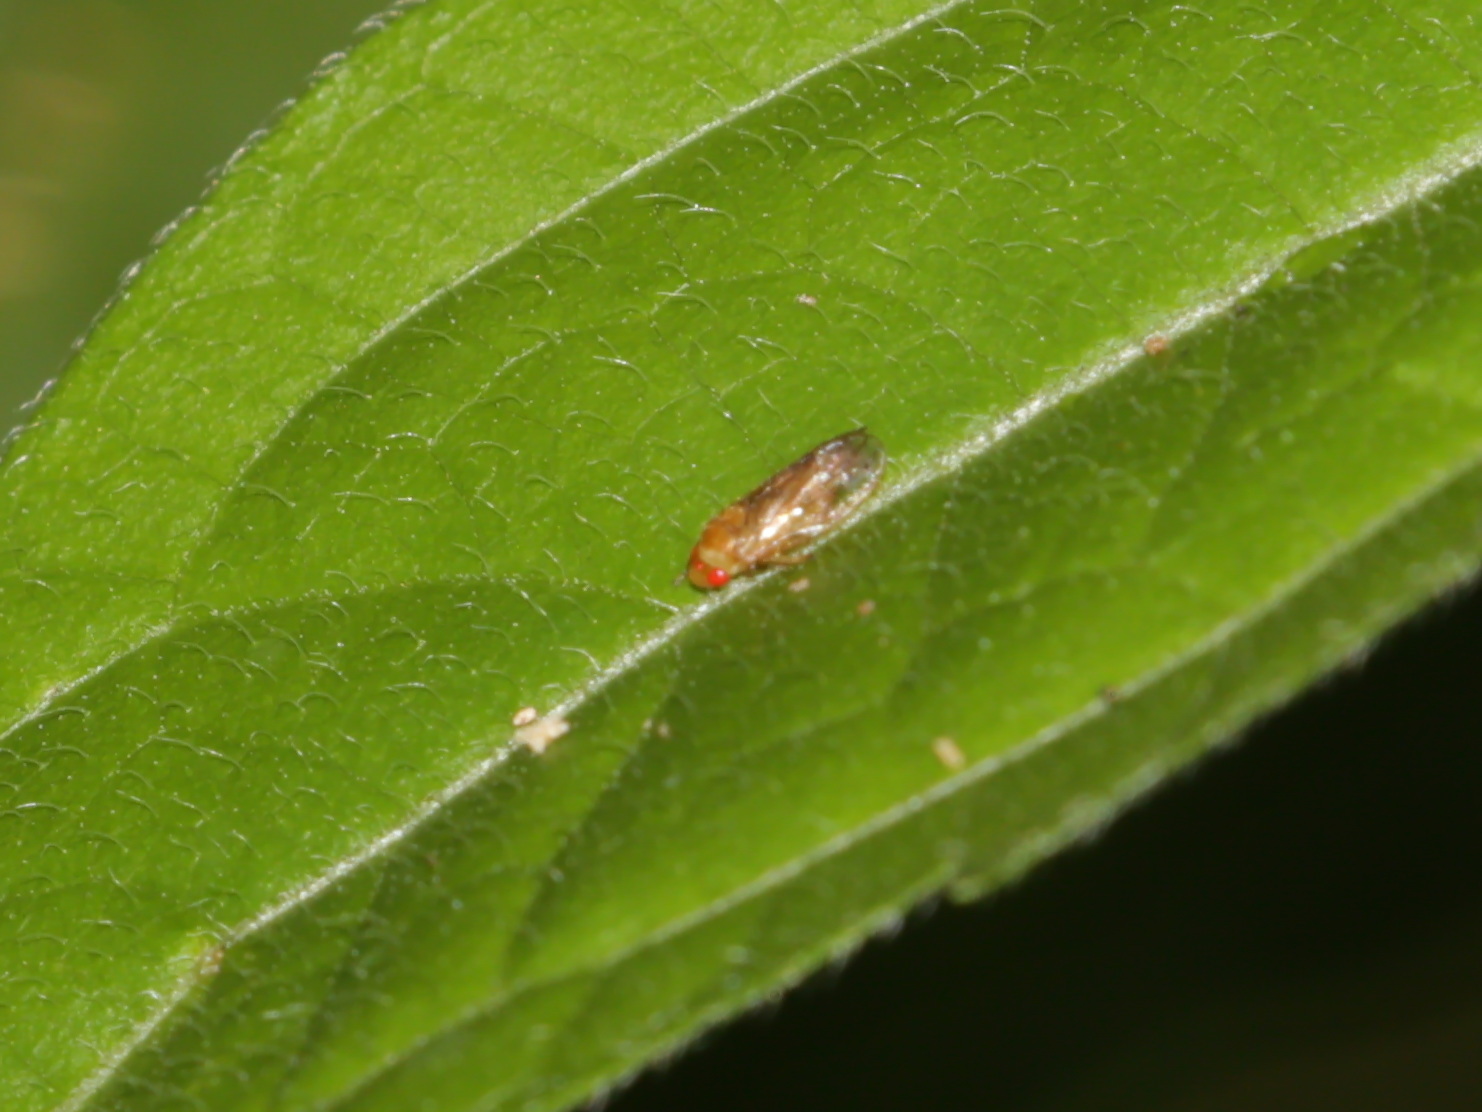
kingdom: Animalia
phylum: Arthropoda
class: Insecta
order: Hemiptera
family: Cercopidae
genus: Hemiliterna
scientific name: Hemiliterna amoena
